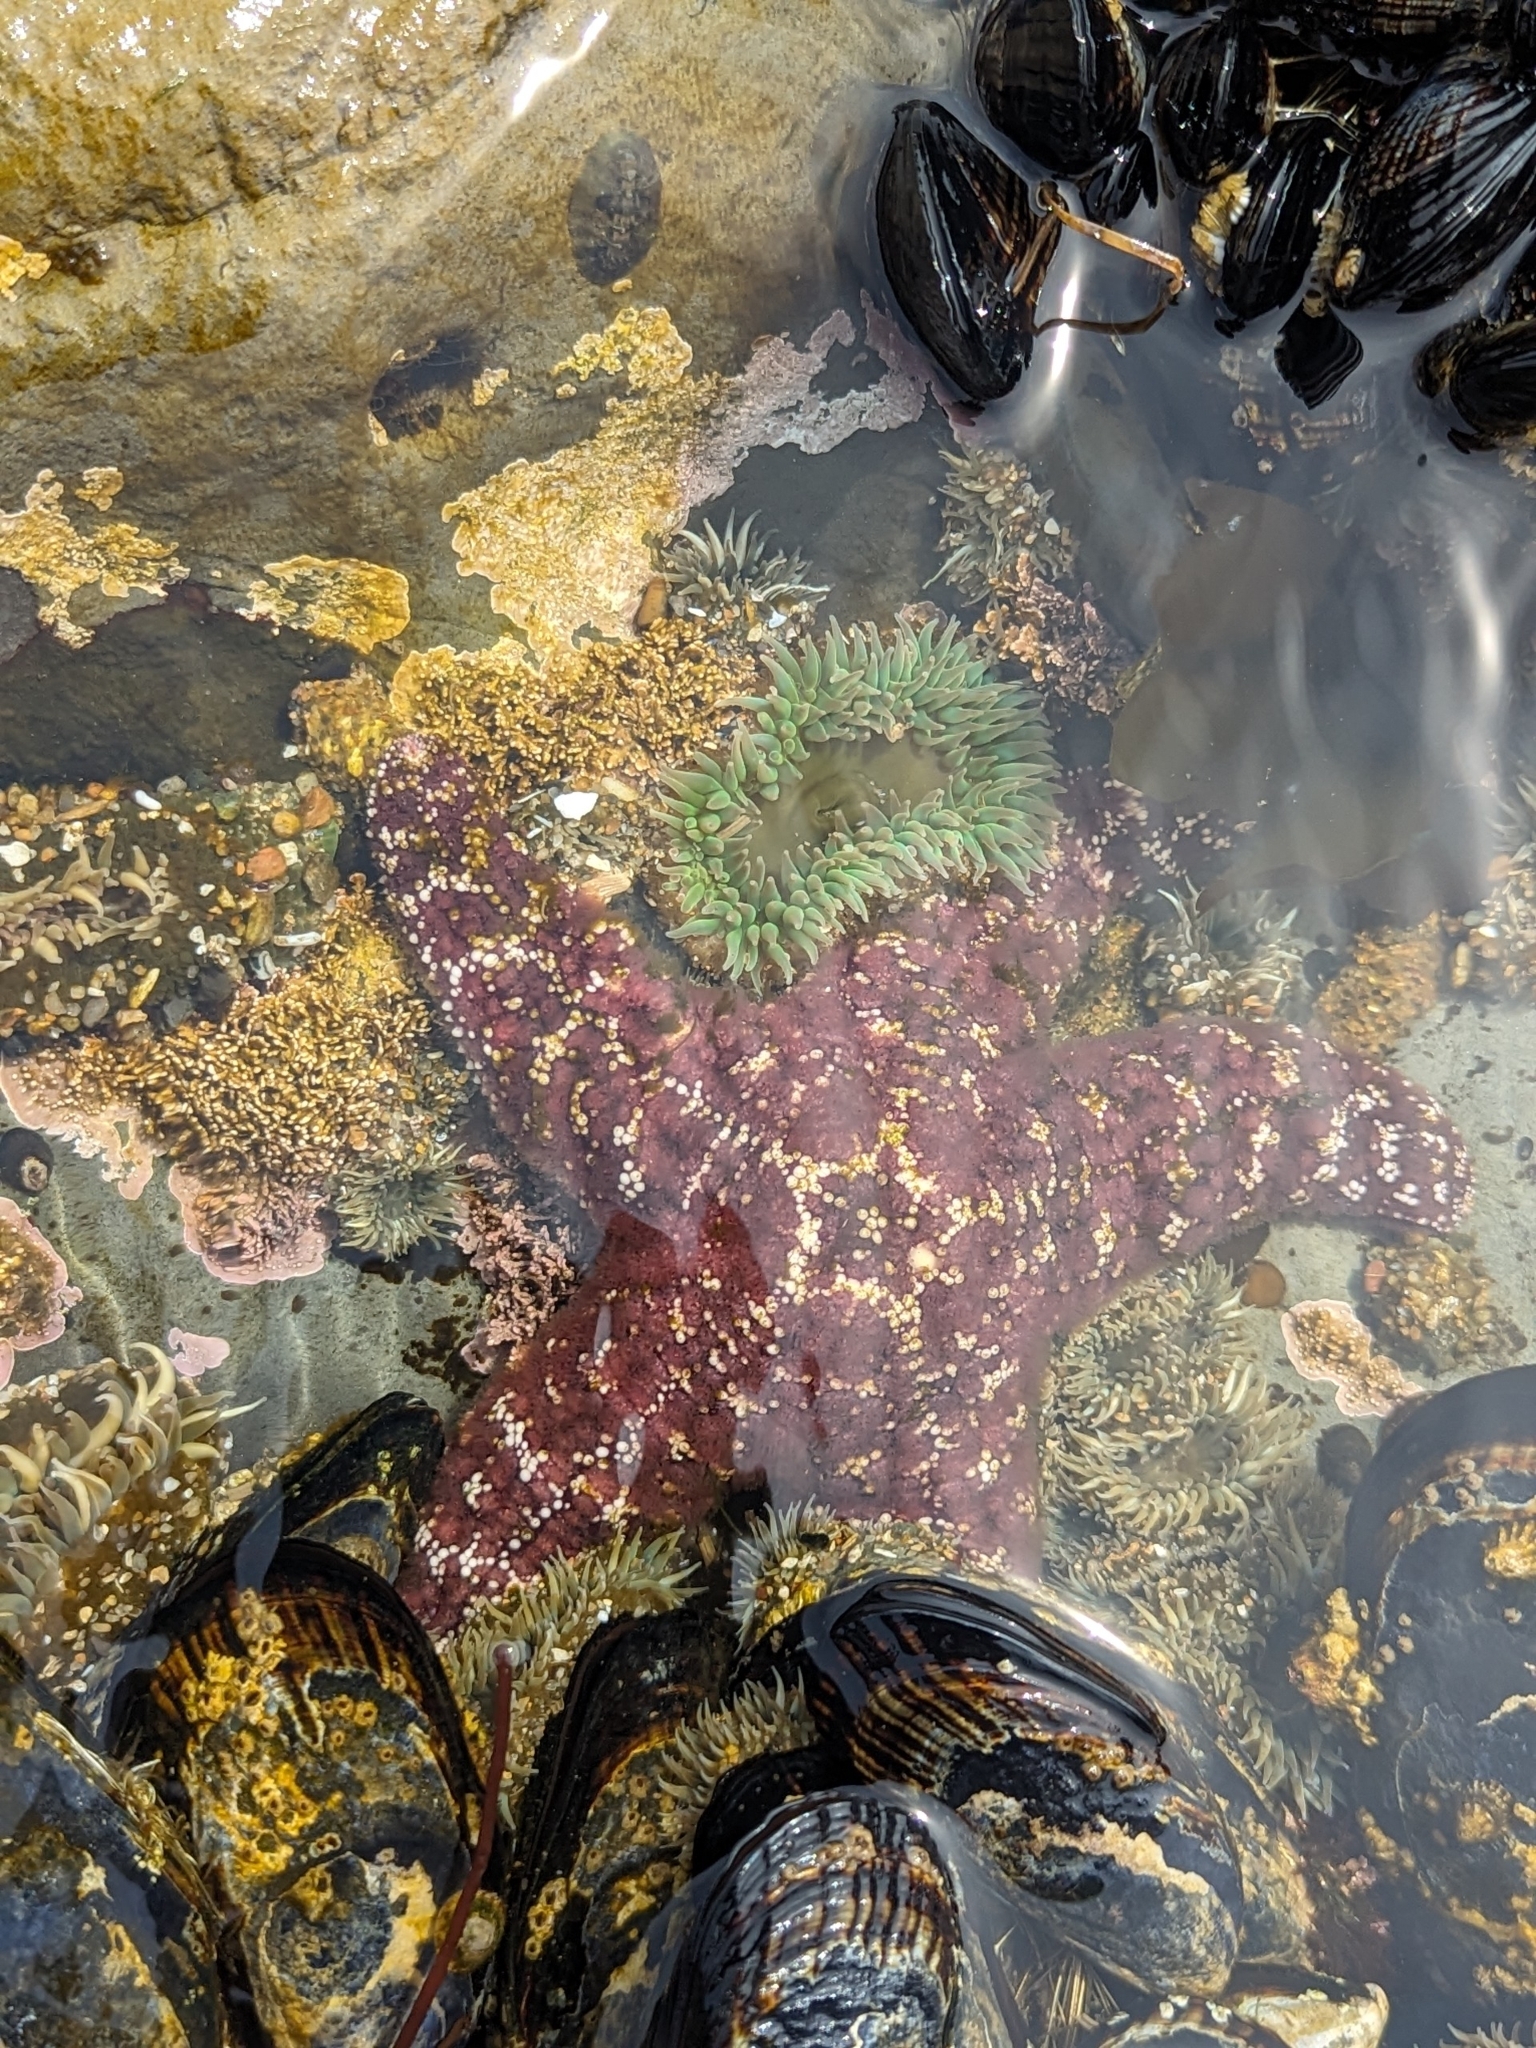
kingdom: Animalia
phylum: Echinodermata
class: Asteroidea
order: Forcipulatida
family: Asteriidae
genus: Pisaster
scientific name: Pisaster ochraceus
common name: Ochre stars
